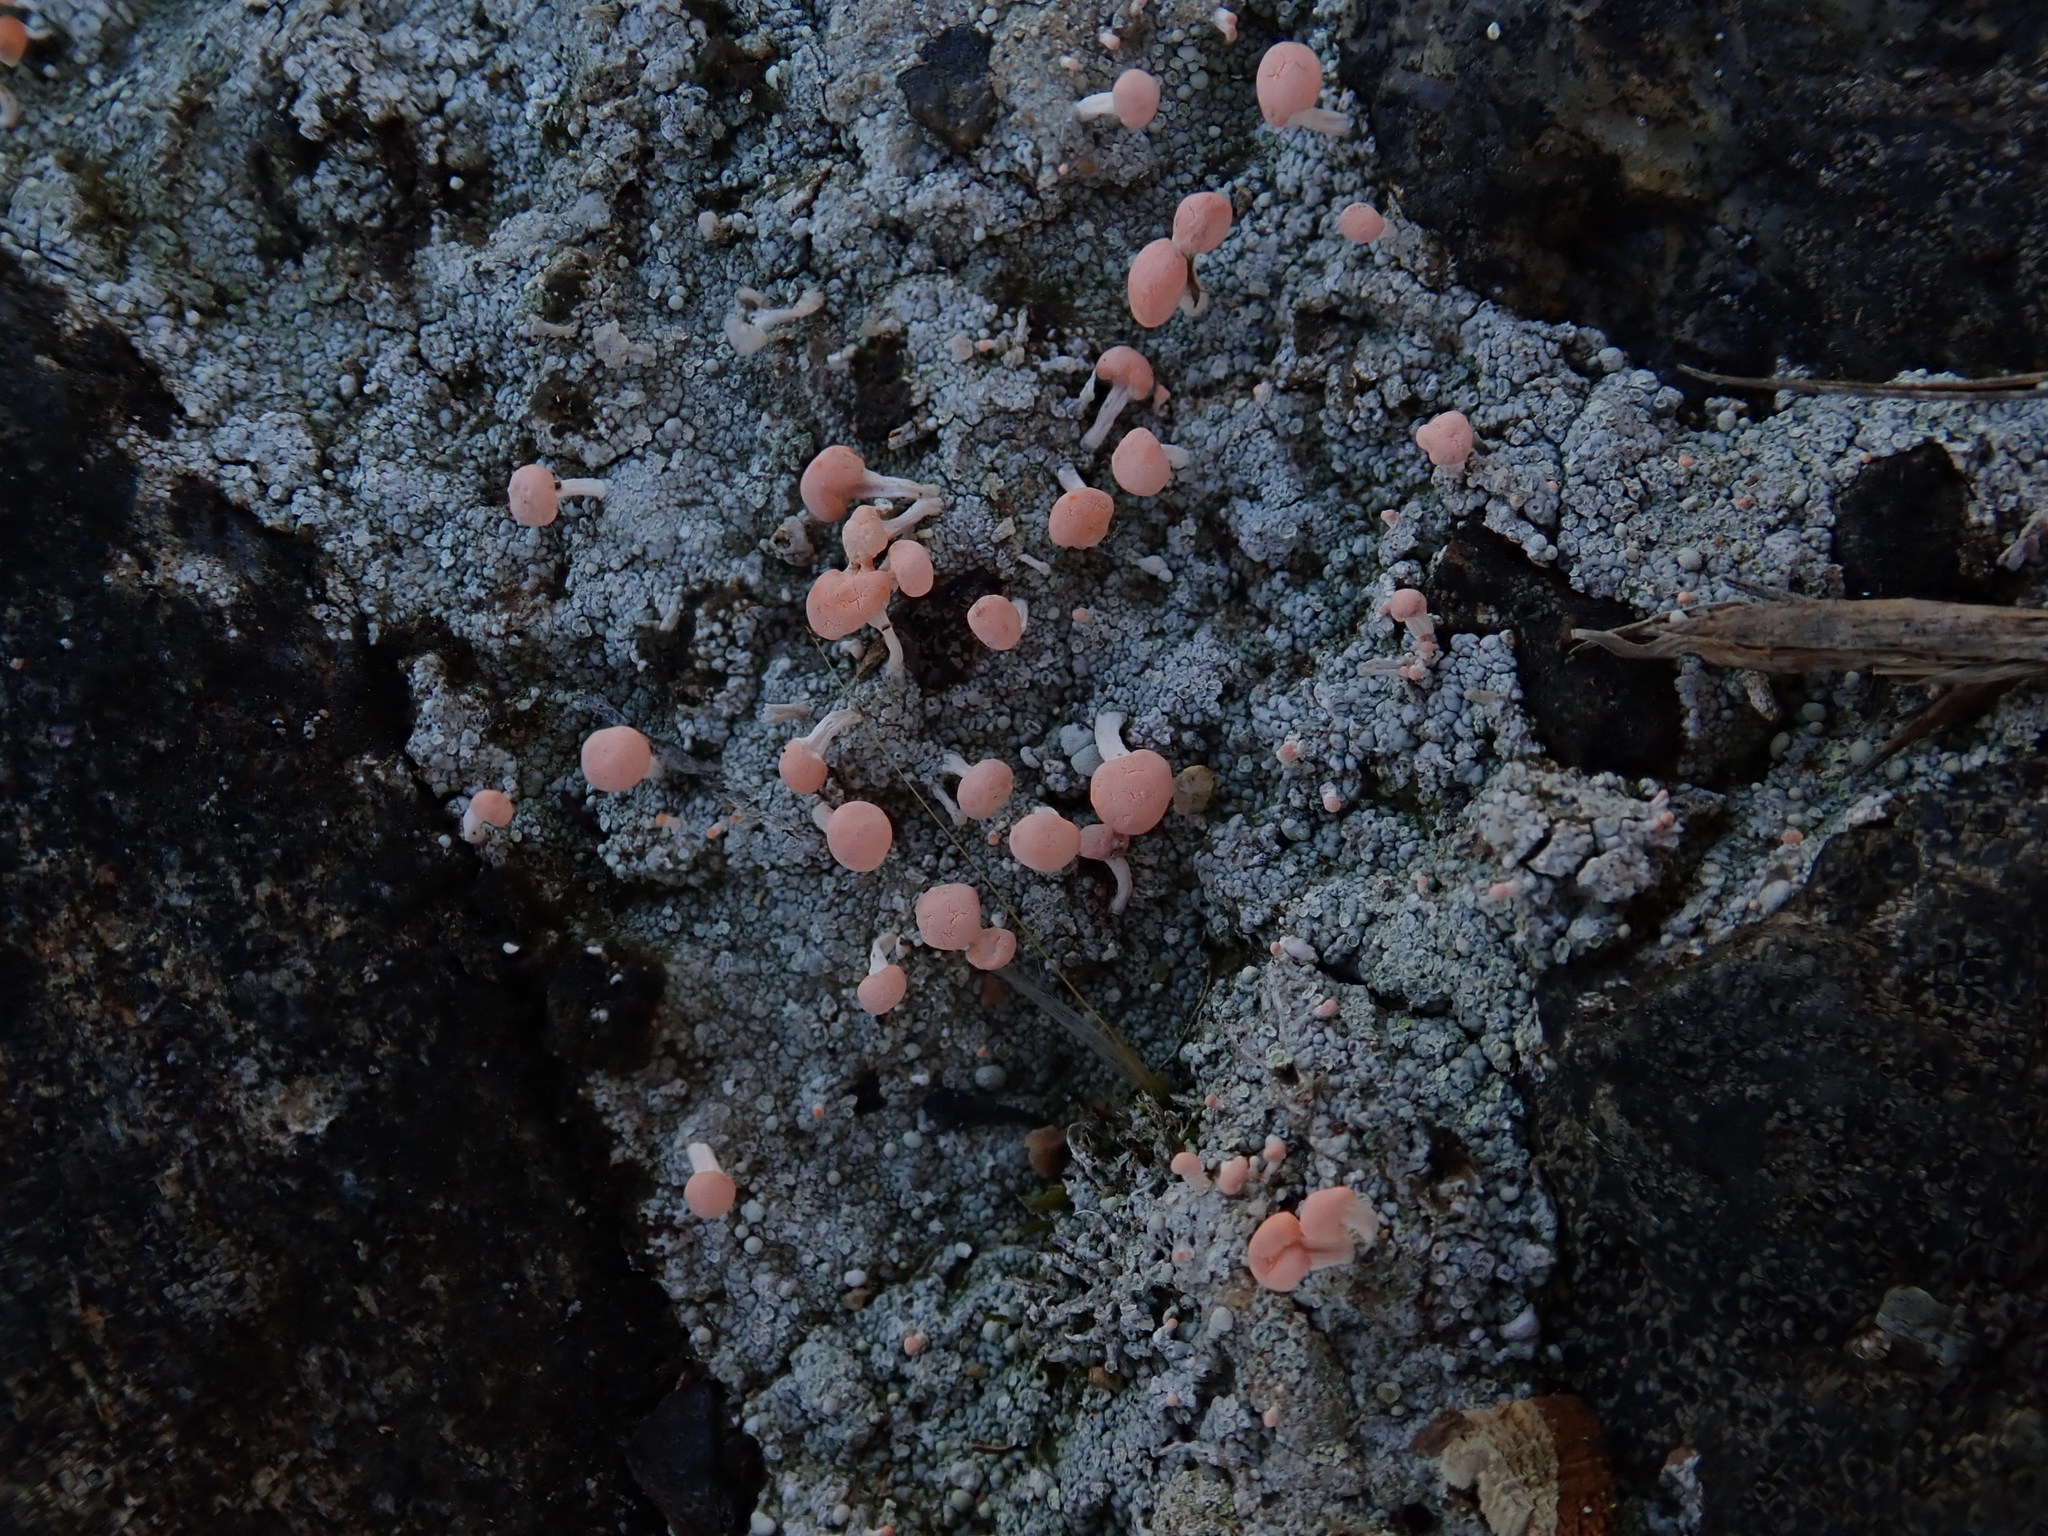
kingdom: Fungi
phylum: Ascomycota
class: Lecanoromycetes
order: Pertusariales
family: Icmadophilaceae
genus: Dibaeis
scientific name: Dibaeis baeomyces
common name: Pink earth lichen
